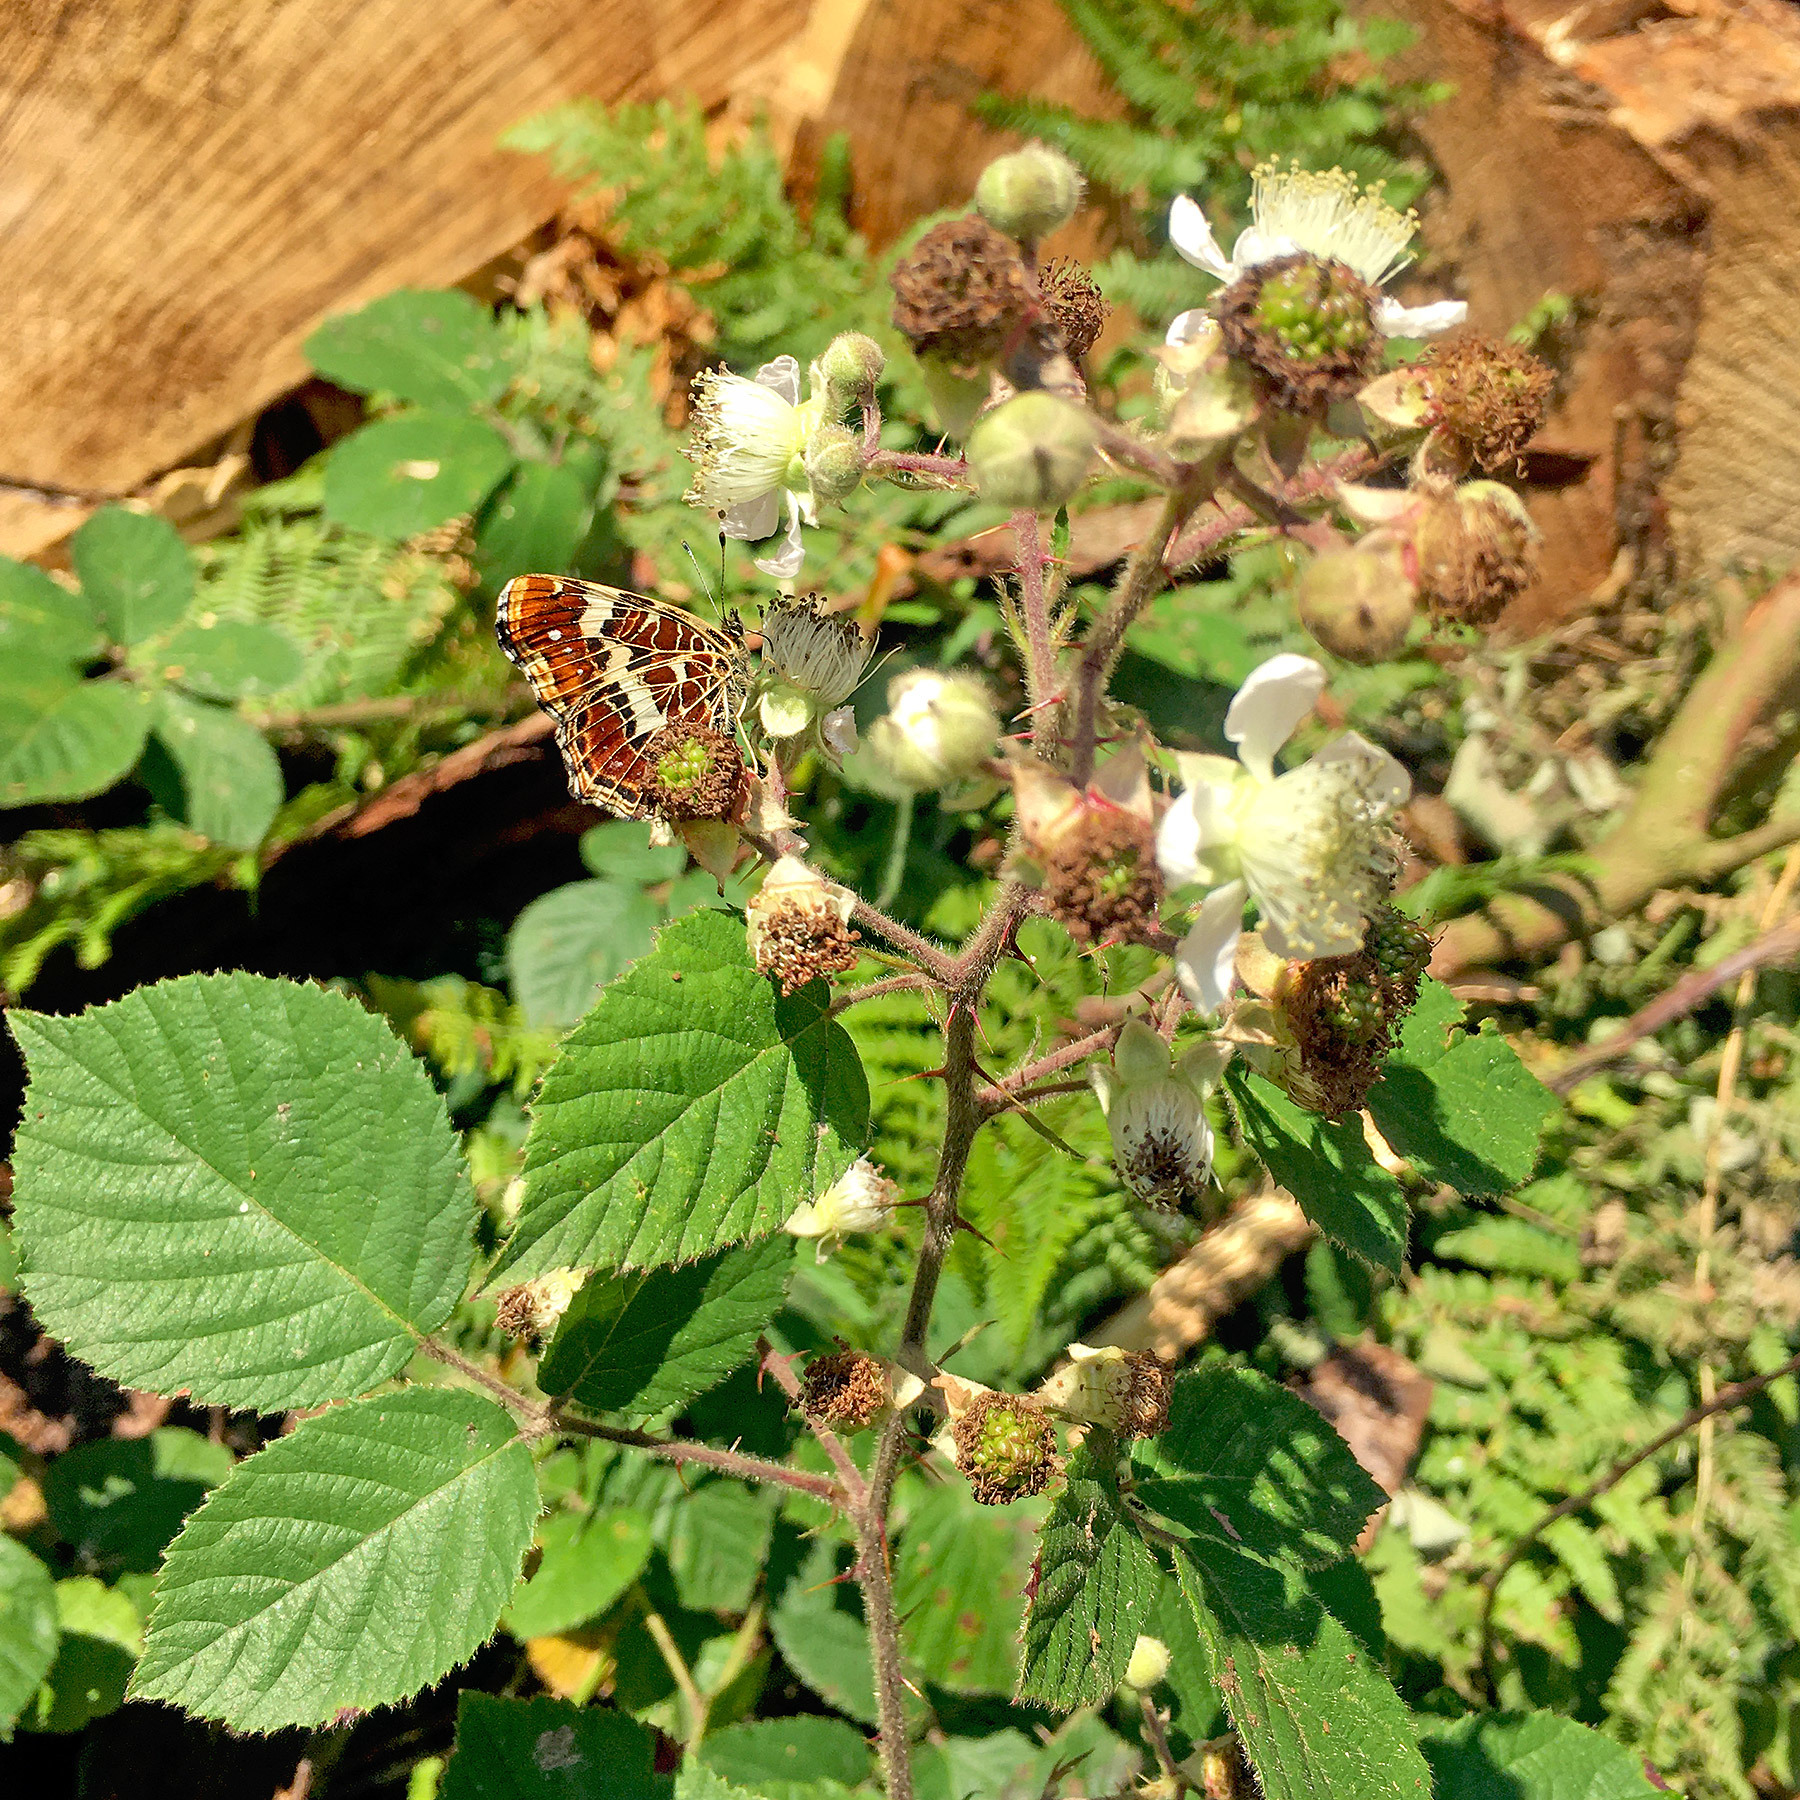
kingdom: Animalia
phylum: Arthropoda
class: Insecta
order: Lepidoptera
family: Nymphalidae
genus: Araschnia
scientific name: Araschnia levana
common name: Map butterfly
